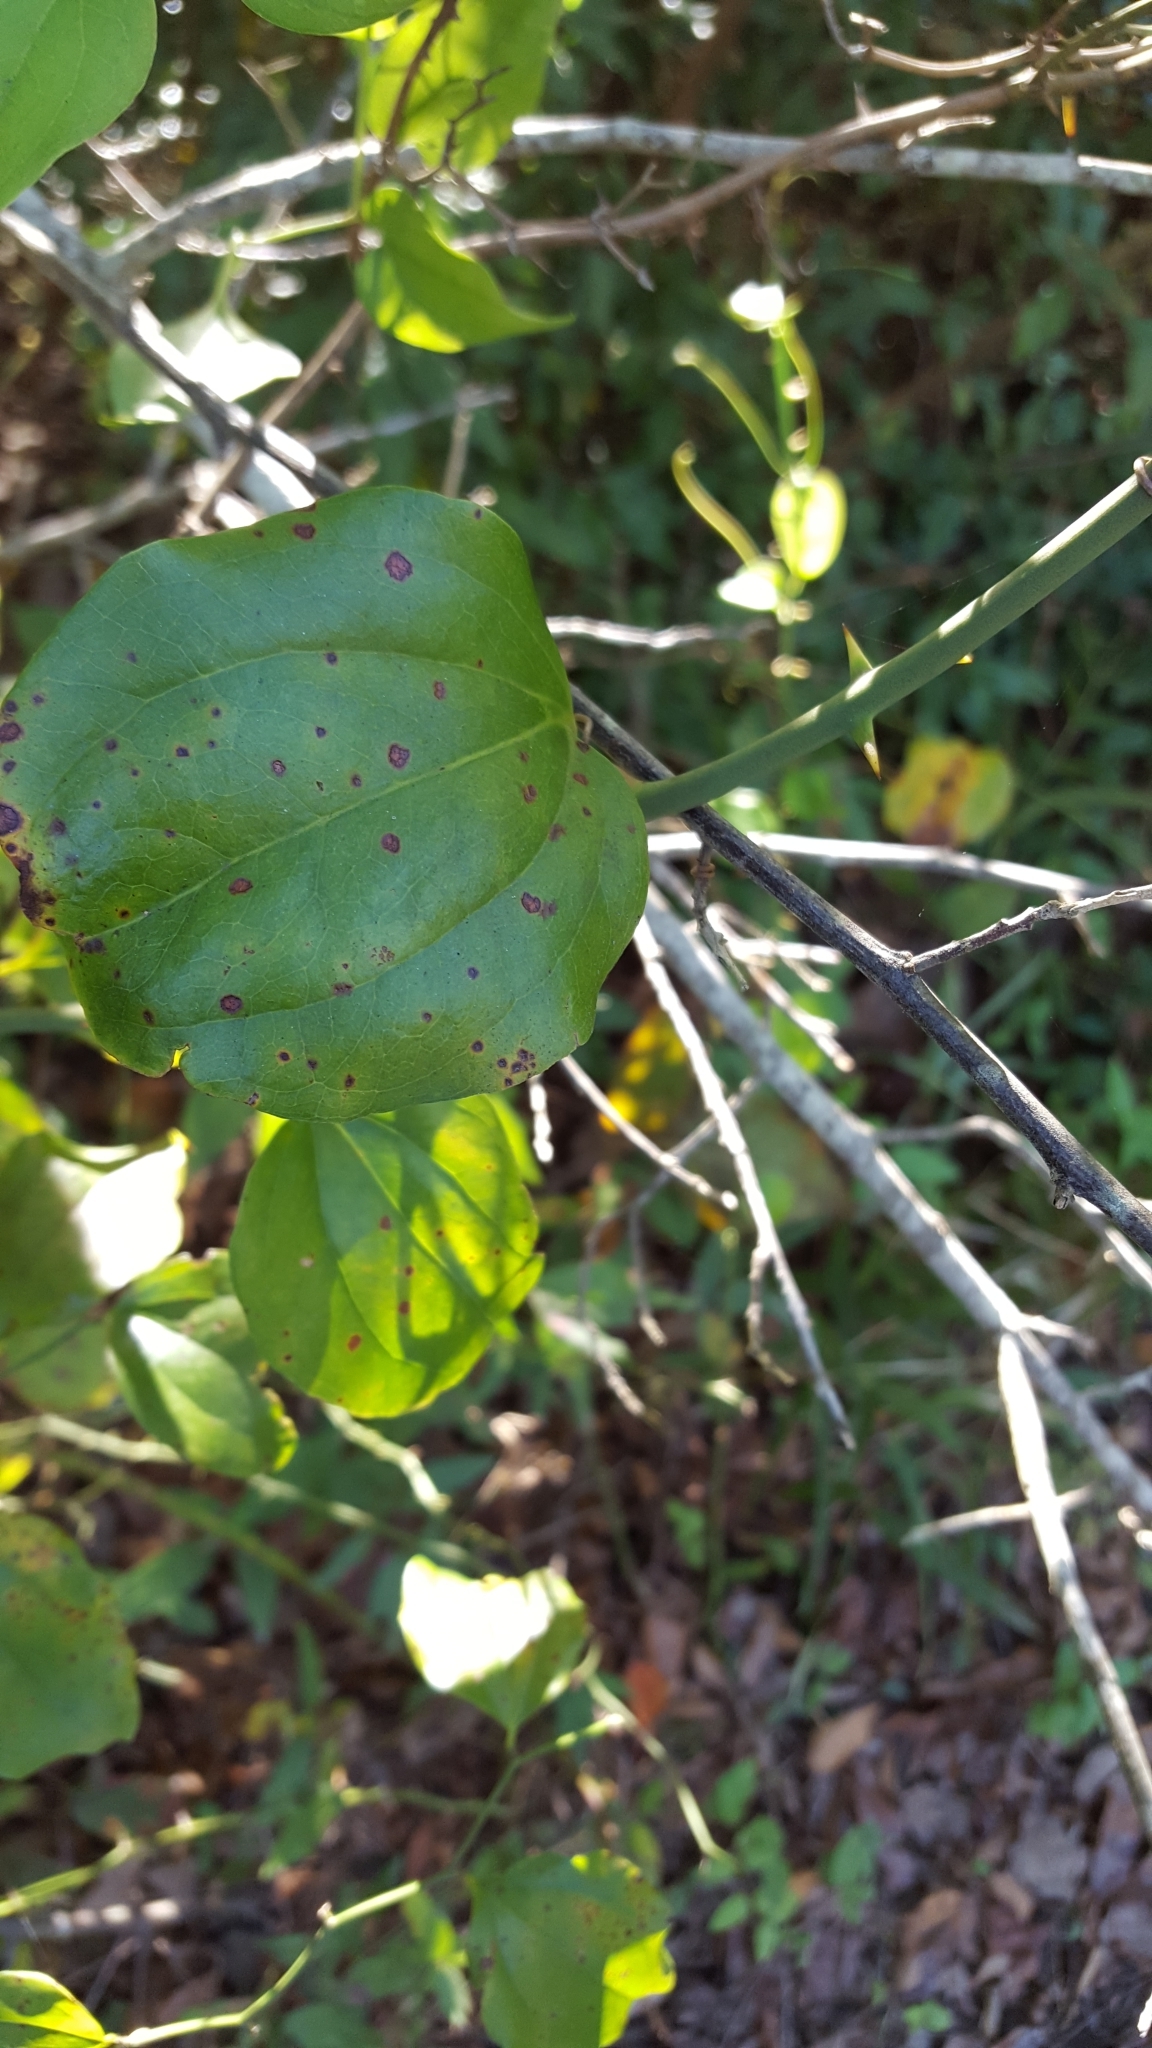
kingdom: Plantae
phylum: Tracheophyta
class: Liliopsida
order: Liliales
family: Smilacaceae
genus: Smilax
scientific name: Smilax rotundifolia
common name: Bullbriar
